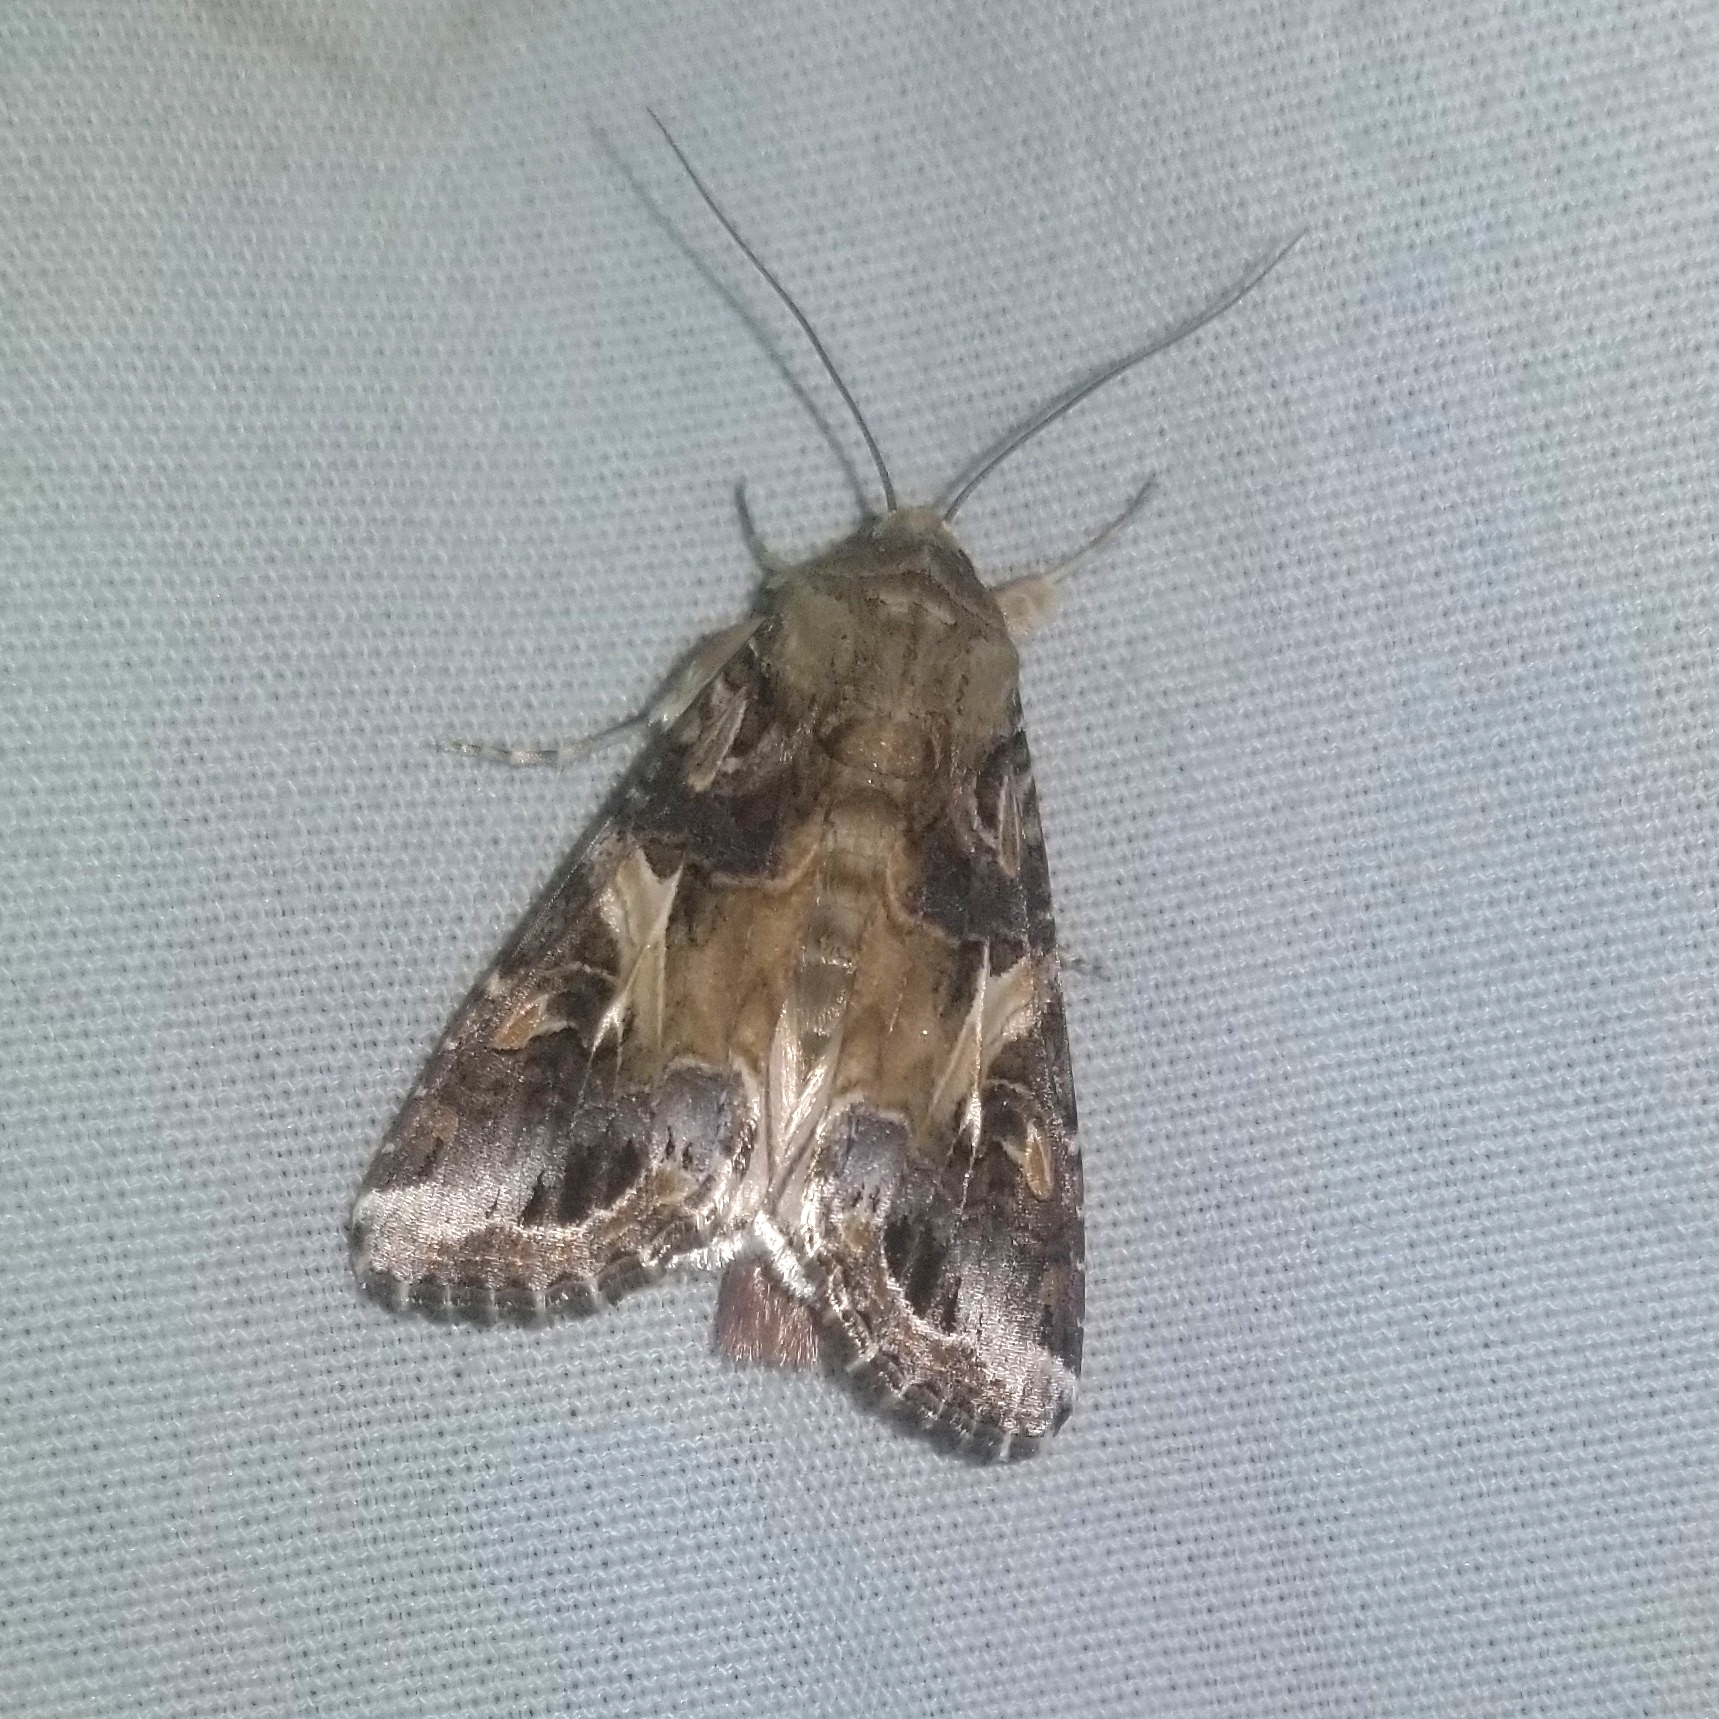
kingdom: Animalia
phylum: Arthropoda
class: Insecta
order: Lepidoptera
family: Noctuidae
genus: Spodoptera
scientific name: Spodoptera ornithogalli
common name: Yellow-striped armyworm
